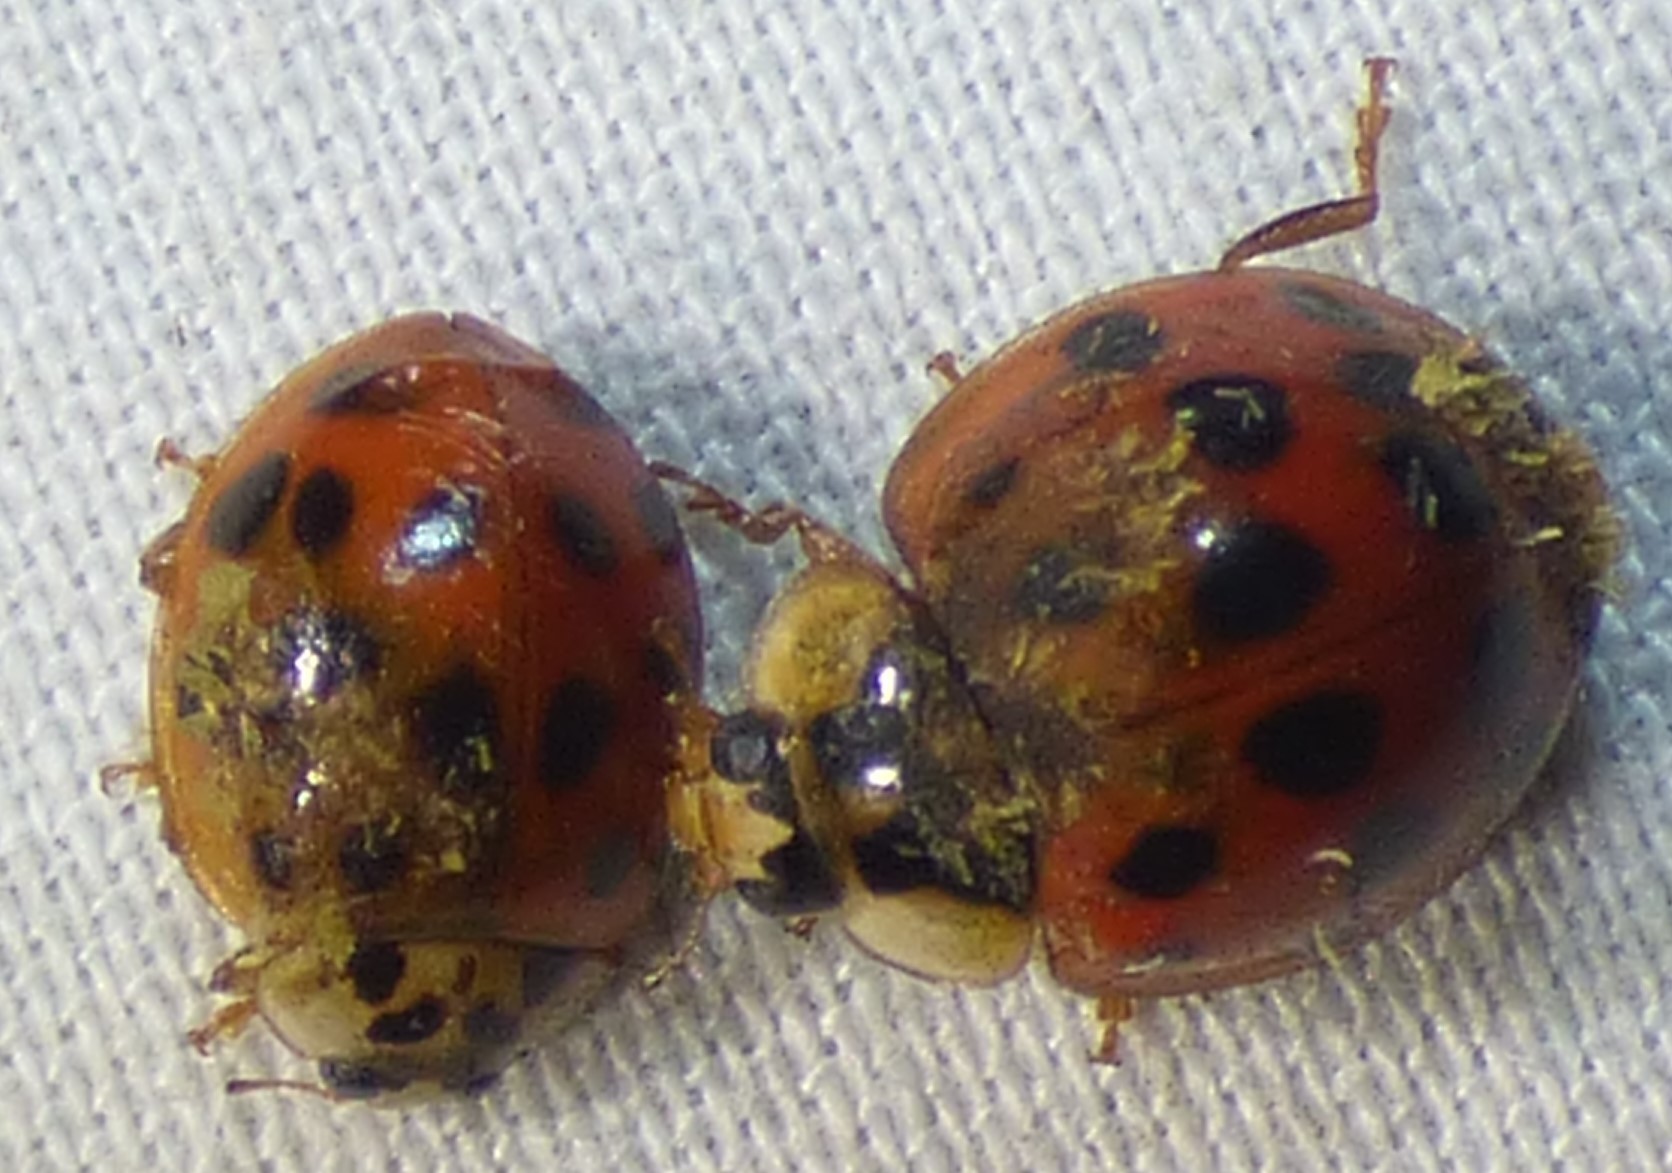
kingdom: Fungi
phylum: Ascomycota
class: Laboulbeniomycetes
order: Laboulbeniales
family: Laboulbeniaceae
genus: Hesperomyces
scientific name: Hesperomyces harmoniae
